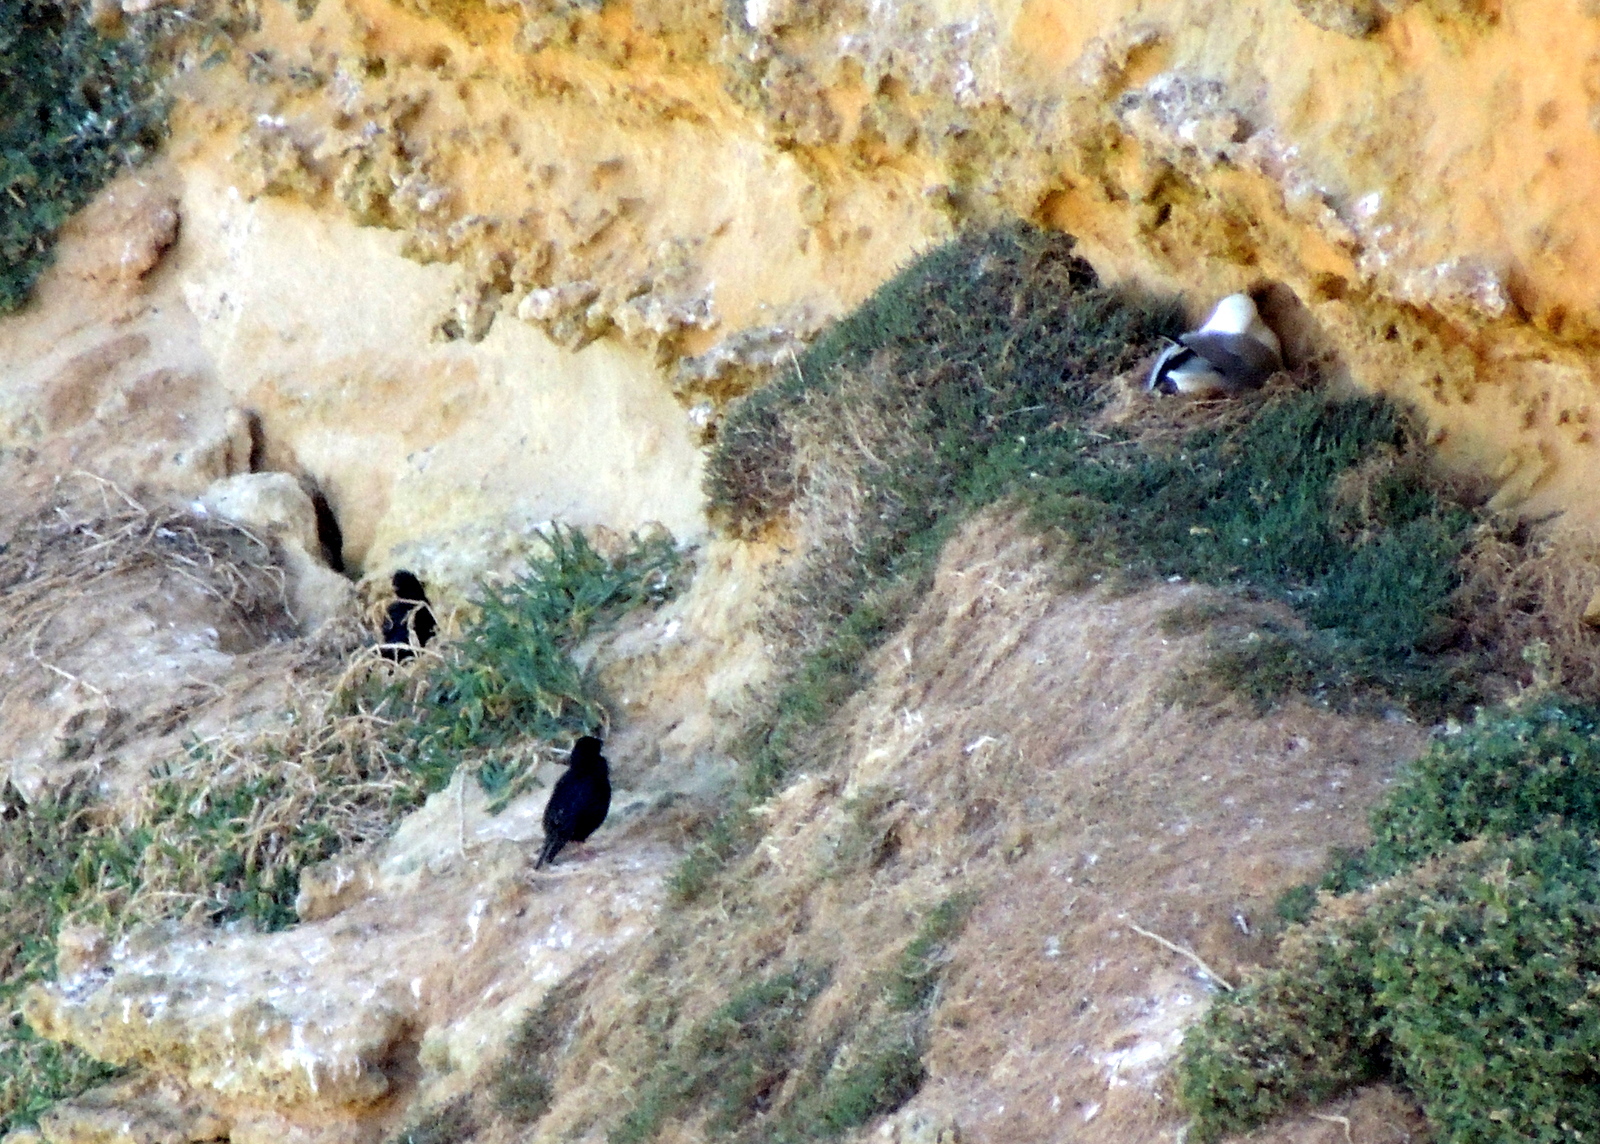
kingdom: Animalia
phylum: Chordata
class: Aves
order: Charadriiformes
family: Laridae
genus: Chroicocephalus
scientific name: Chroicocephalus novaehollandiae
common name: Silver gull
